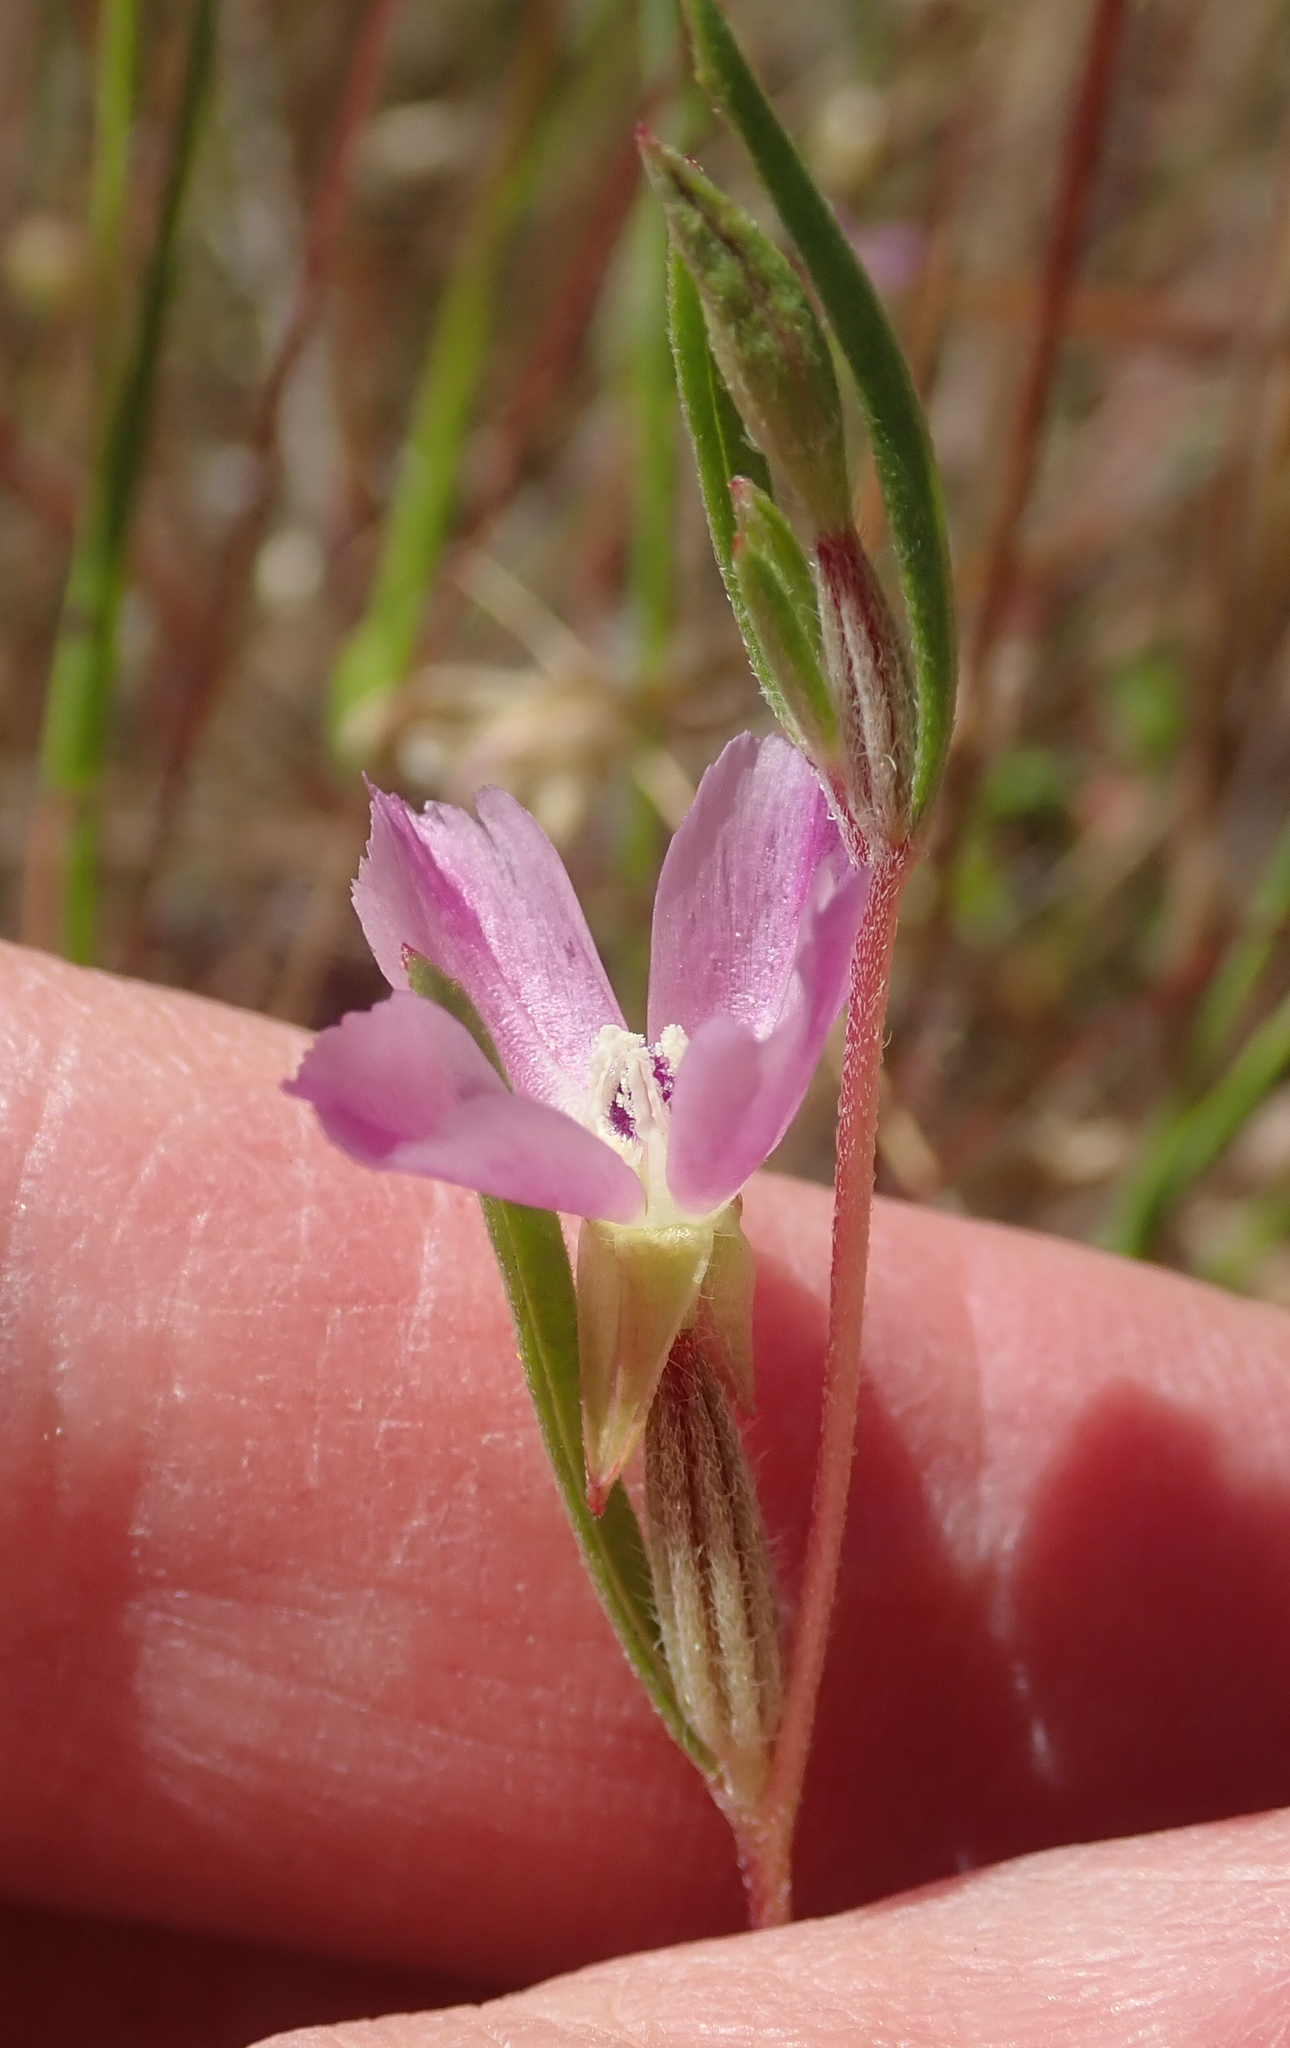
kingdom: Plantae
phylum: Tracheophyta
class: Magnoliopsida
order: Myrtales
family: Onagraceae
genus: Clarkia
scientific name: Clarkia purpurea
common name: Purple clarkia
